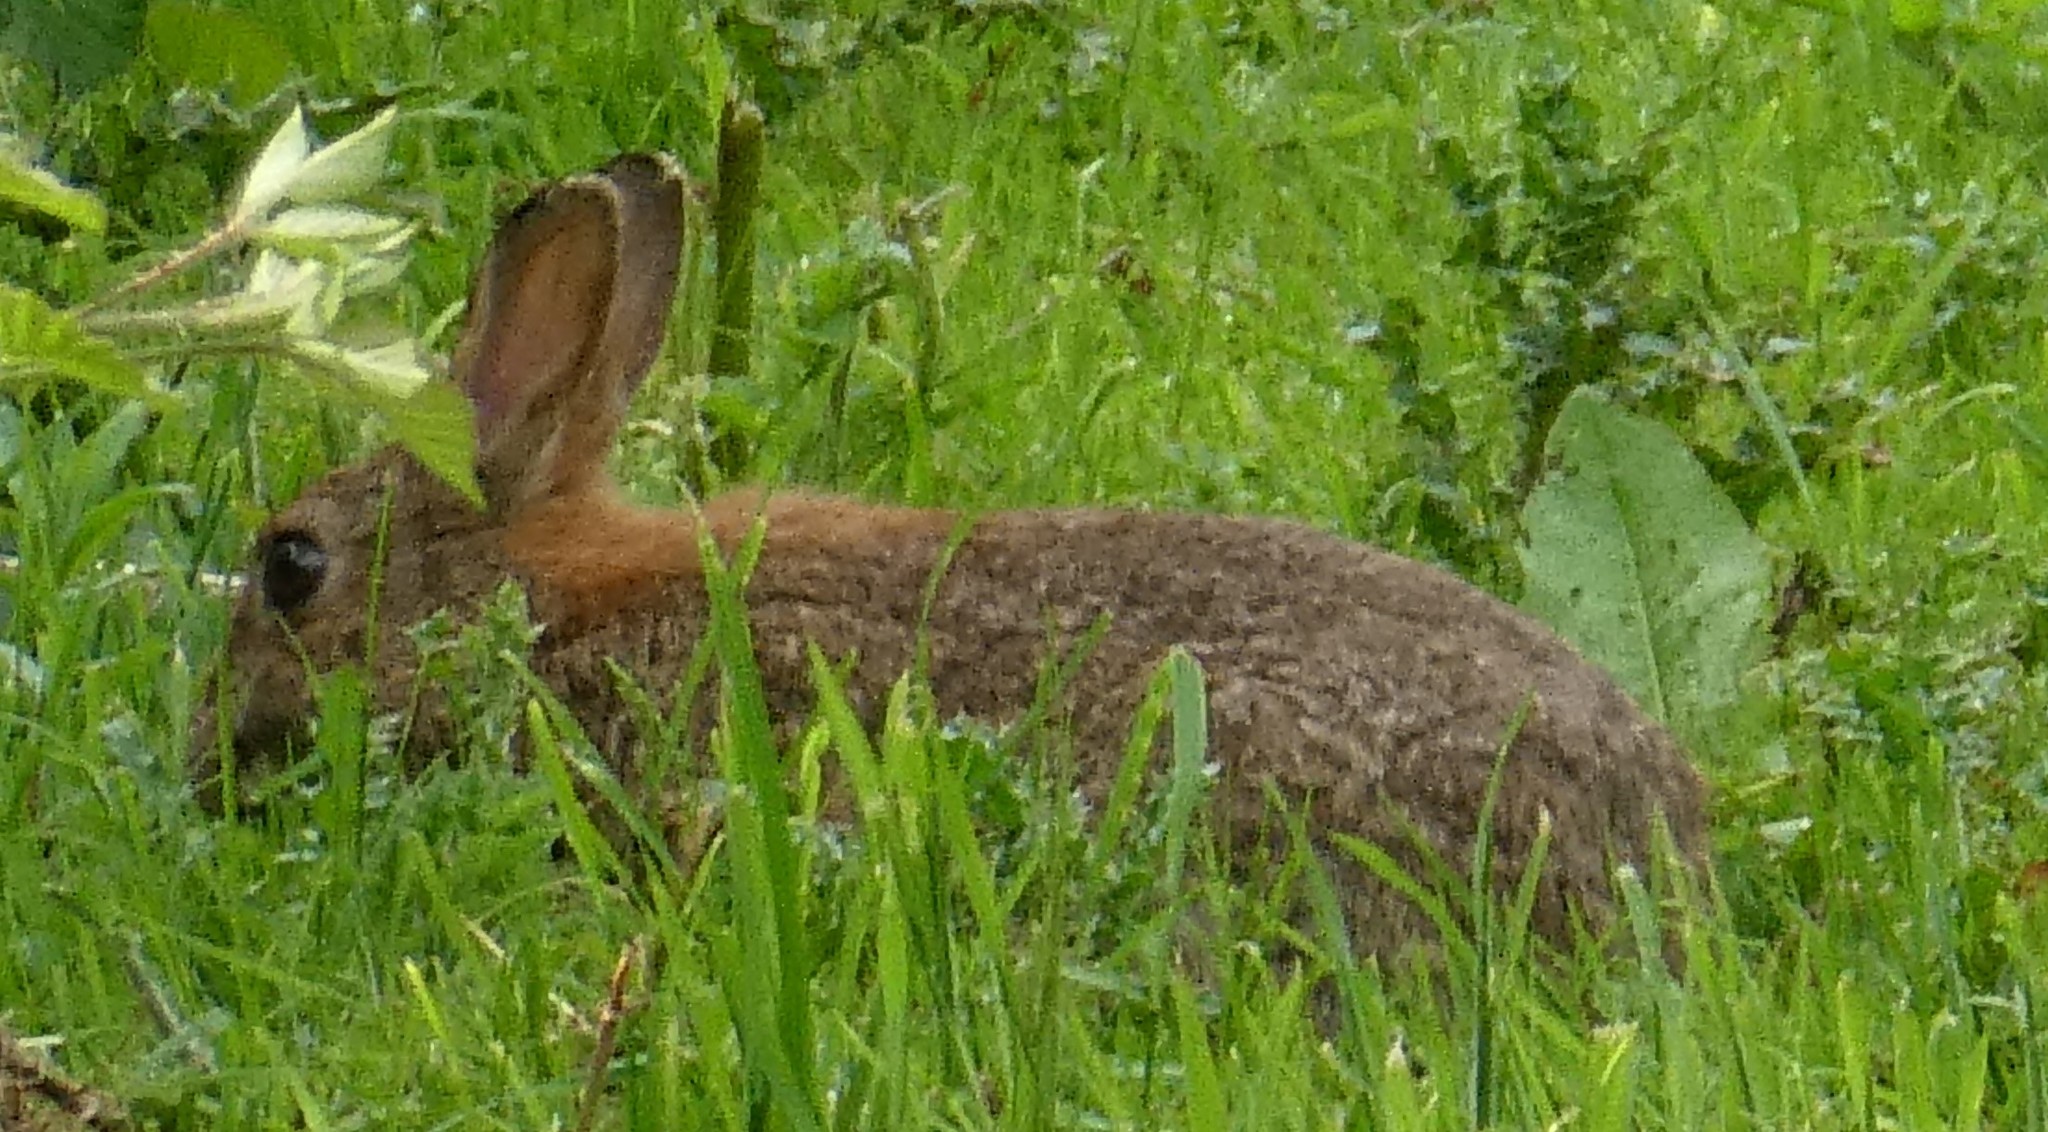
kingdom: Animalia
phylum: Chordata
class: Mammalia
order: Lagomorpha
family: Leporidae
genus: Oryctolagus
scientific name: Oryctolagus cuniculus
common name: European rabbit
